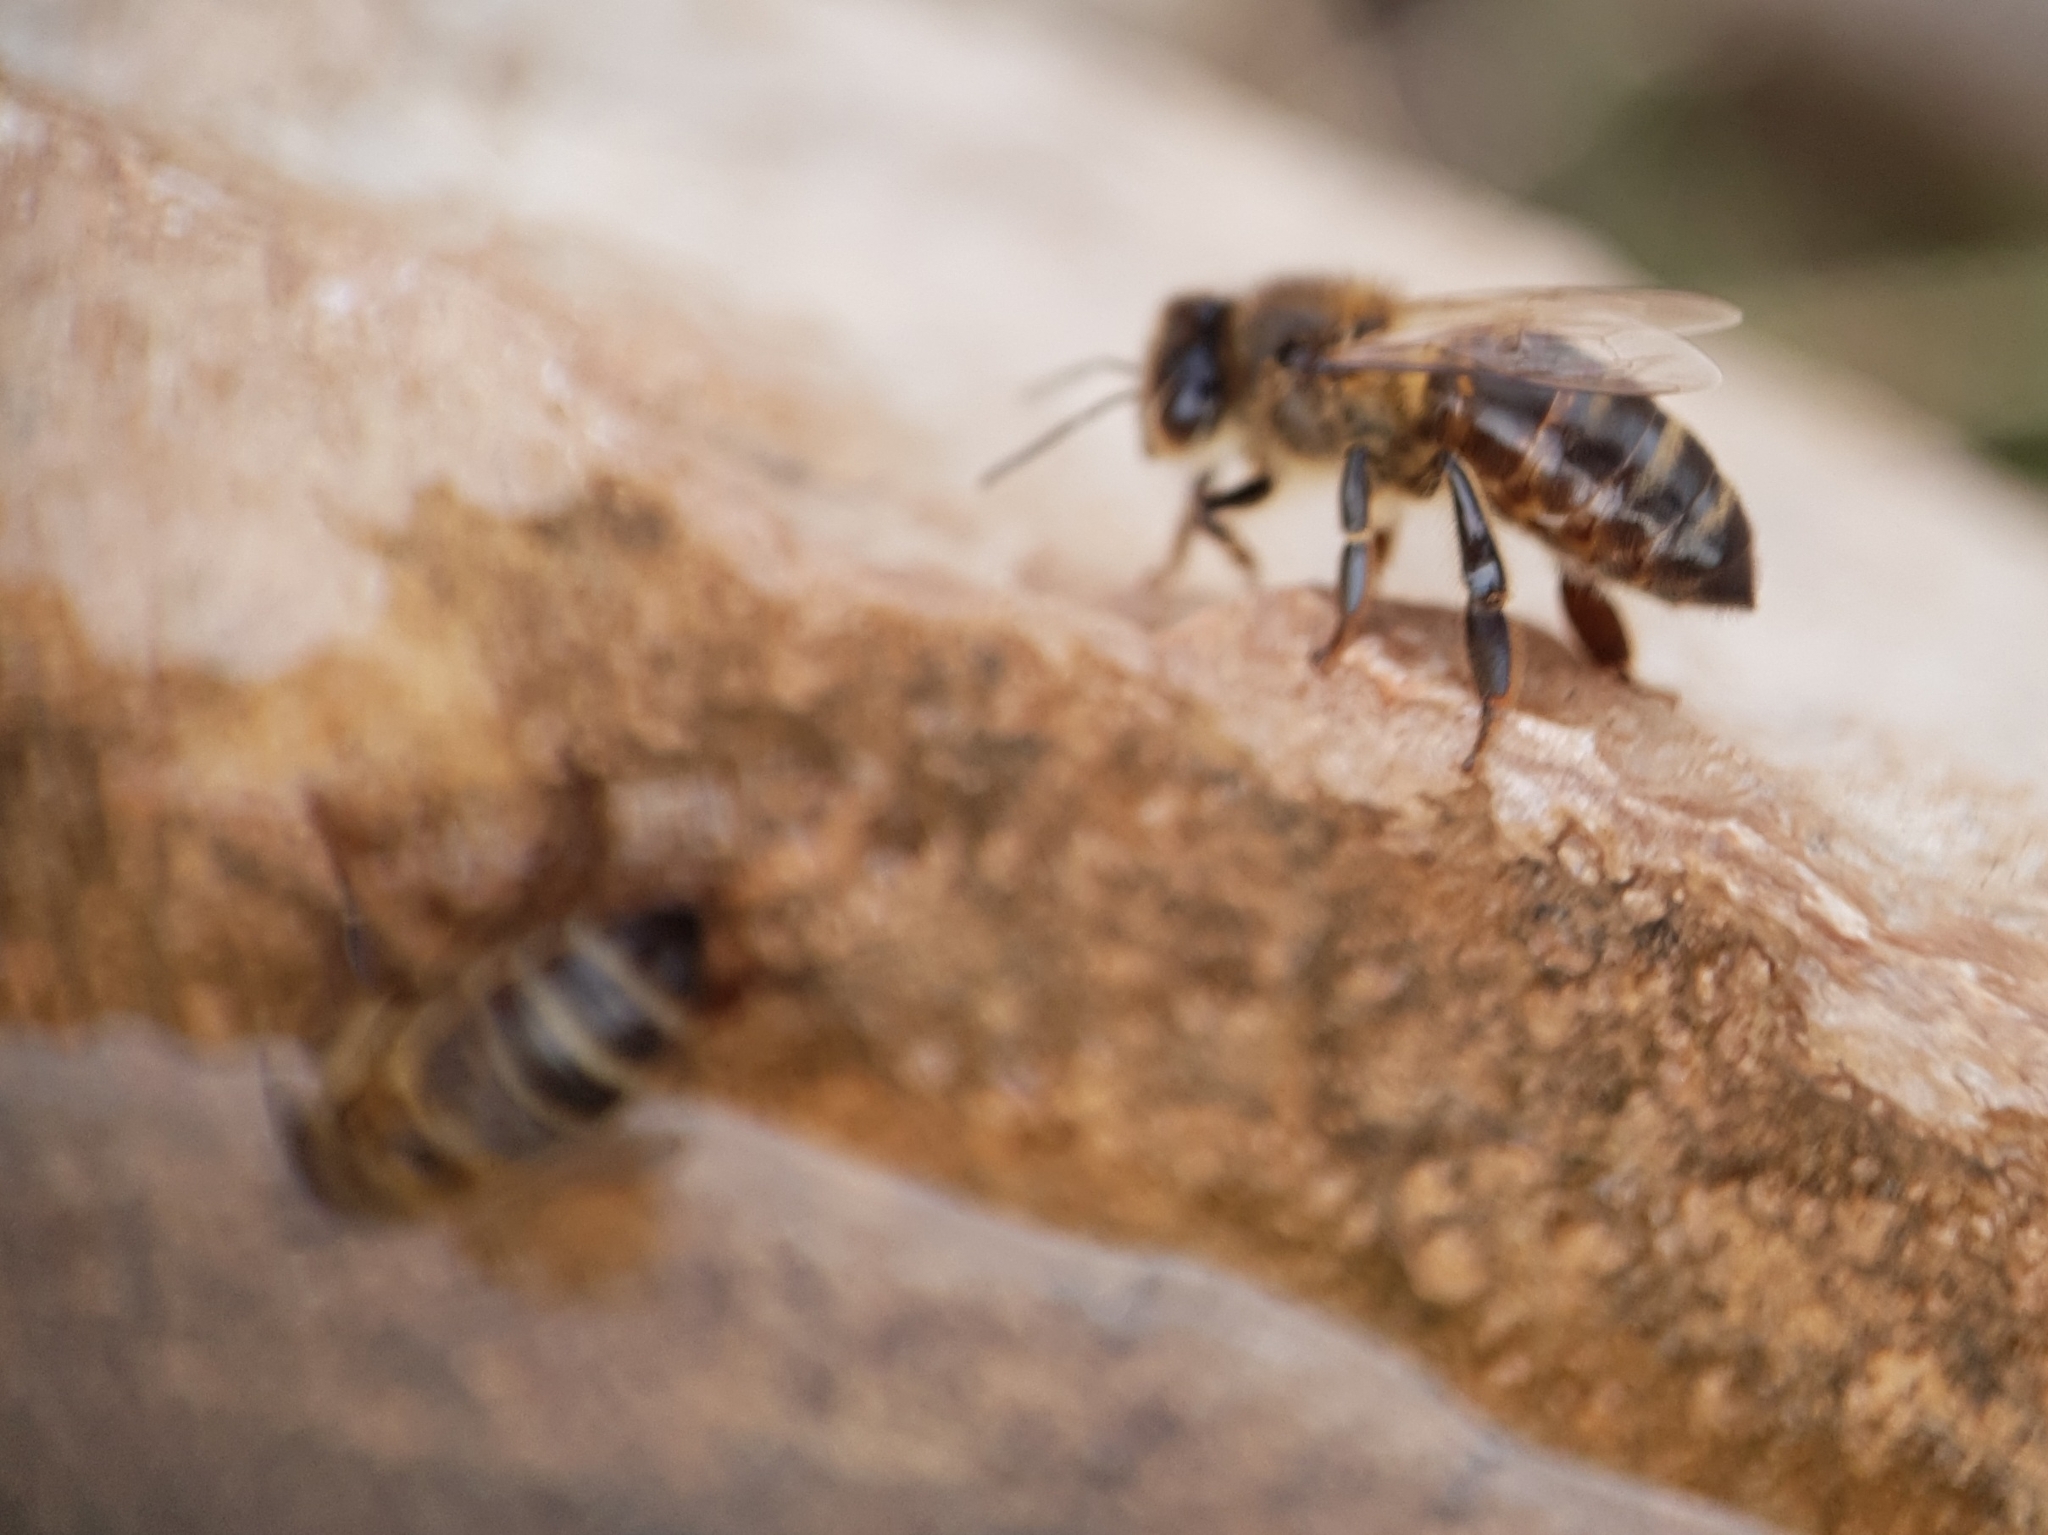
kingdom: Animalia
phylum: Arthropoda
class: Insecta
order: Hymenoptera
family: Apidae
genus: Apis
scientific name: Apis mellifera
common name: Honey bee
